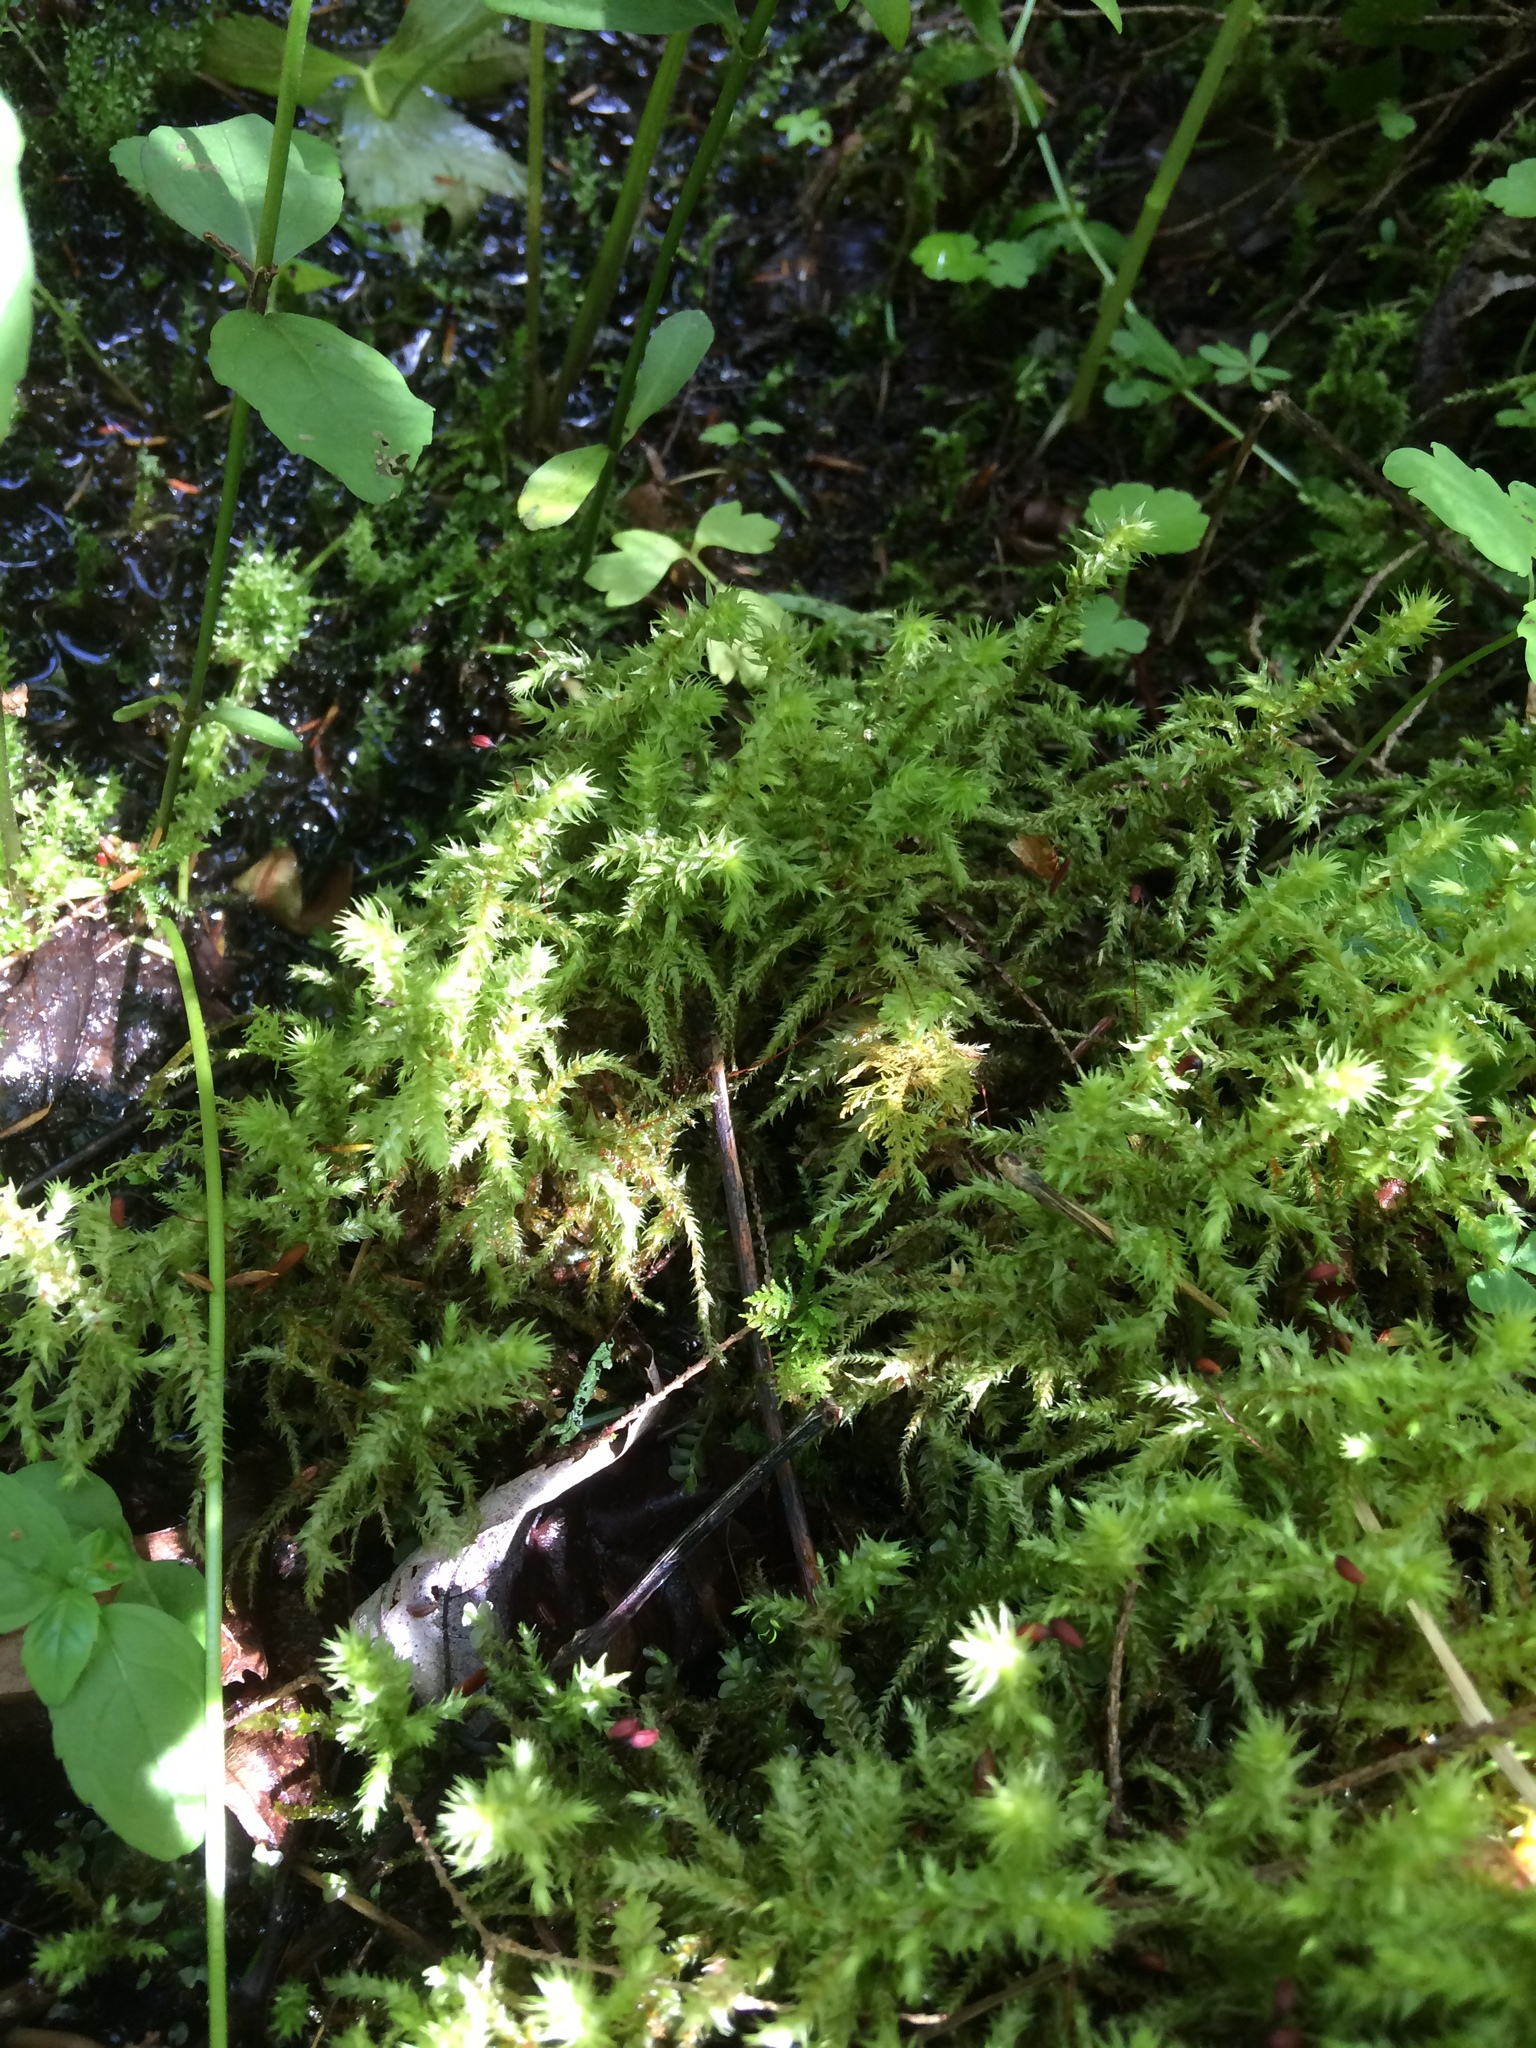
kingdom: Plantae
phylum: Bryophyta
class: Bryopsida
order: Hypnales
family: Hylocomiaceae
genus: Hylocomiadelphus
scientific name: Hylocomiadelphus triquetrus
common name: Rough goose neck moss
